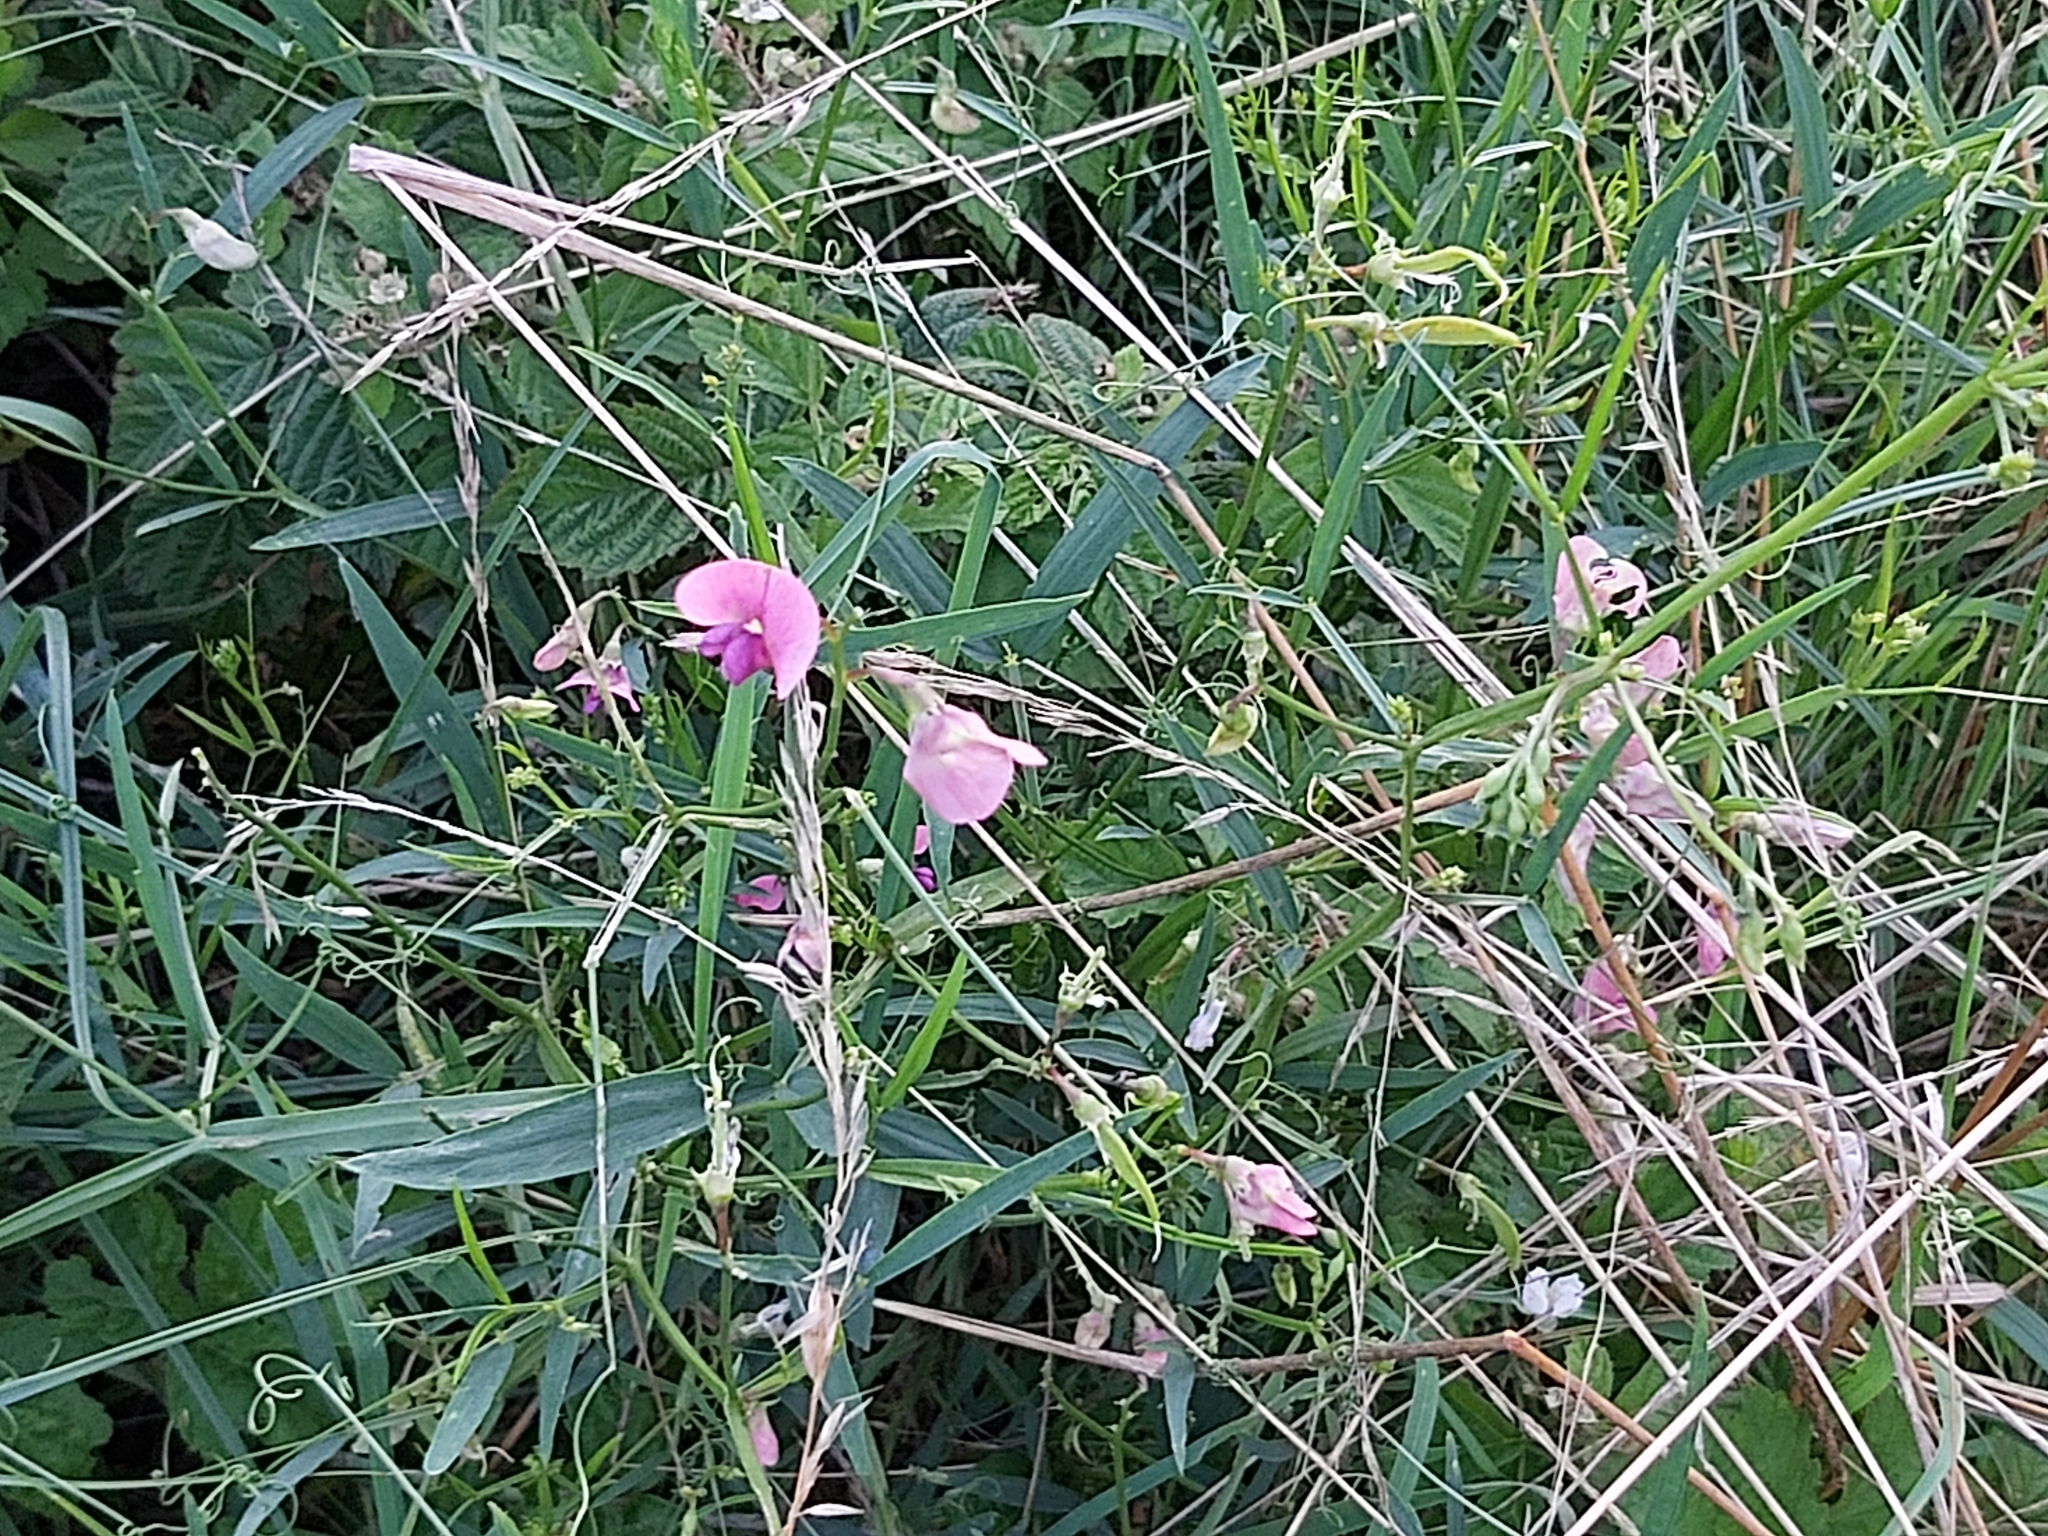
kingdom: Plantae
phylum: Tracheophyta
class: Magnoliopsida
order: Fabales
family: Fabaceae
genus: Lathyrus
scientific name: Lathyrus sylvestris
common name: Flat pea
